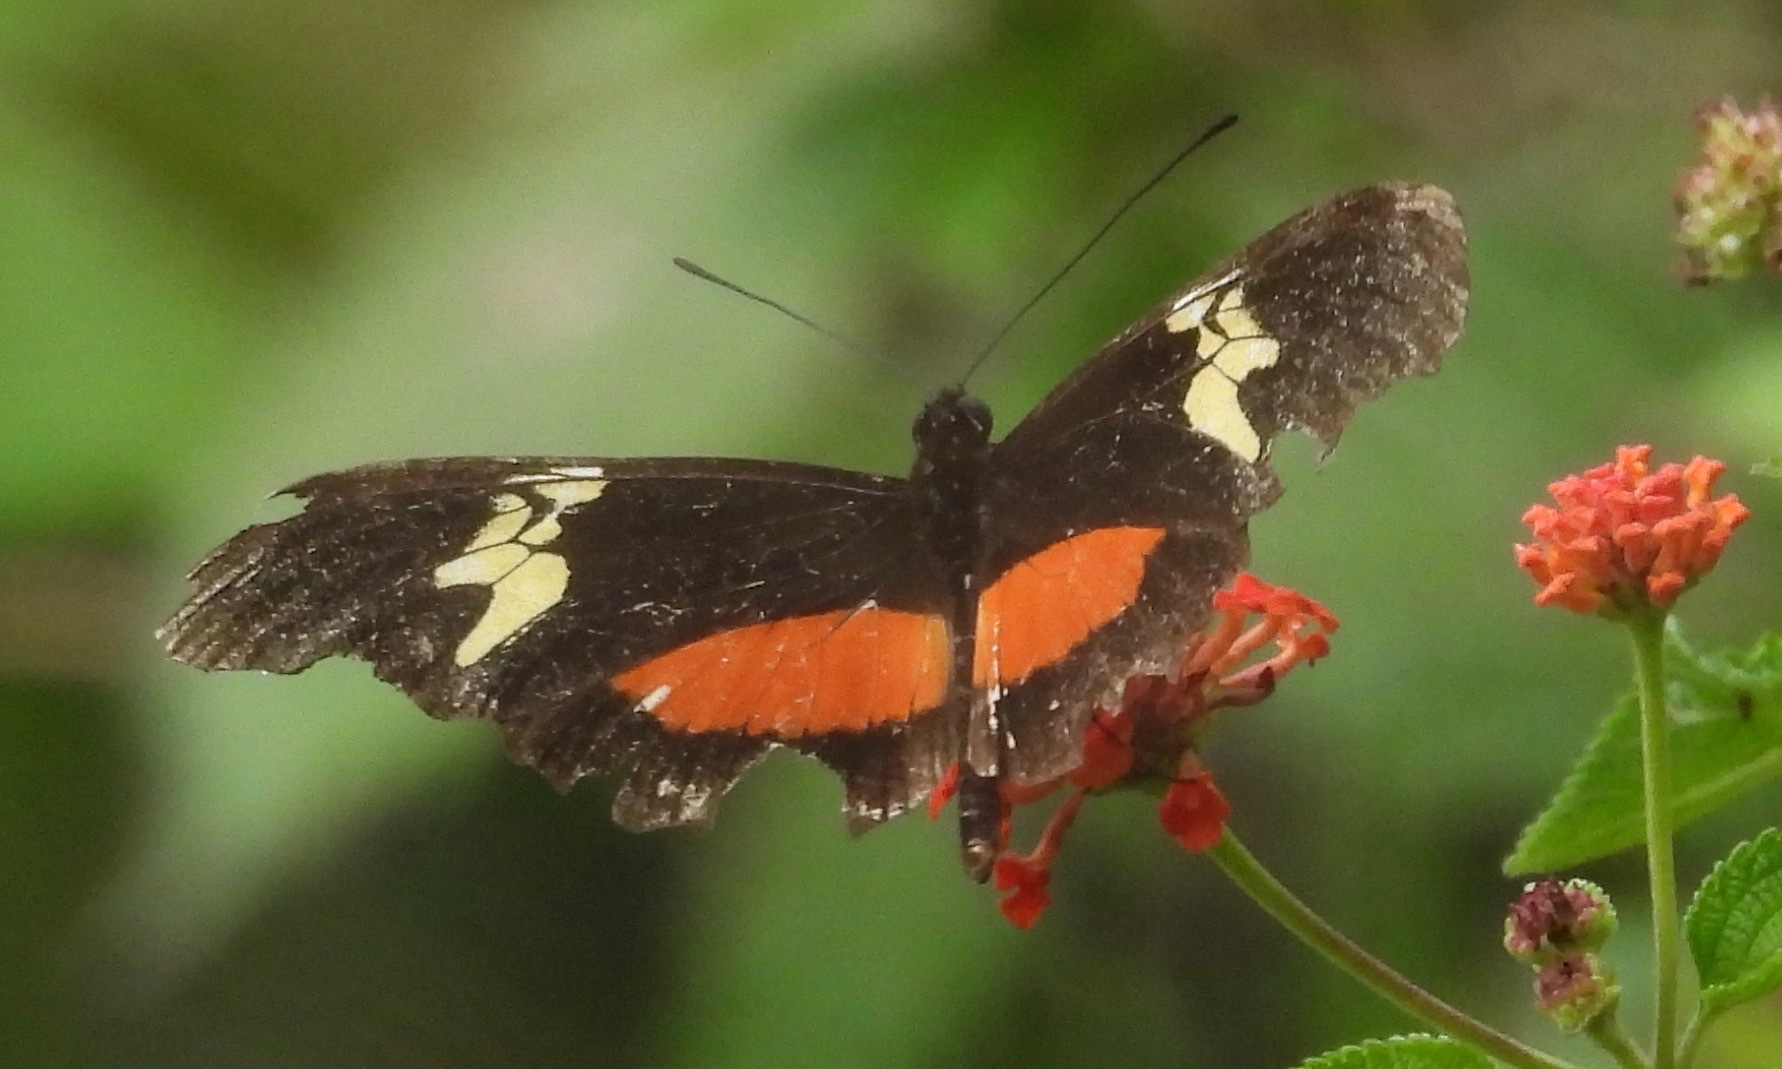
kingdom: Animalia
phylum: Arthropoda
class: Insecta
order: Lepidoptera
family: Nymphalidae
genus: Heliconius
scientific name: Heliconius hortense
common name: Mexican longwing
